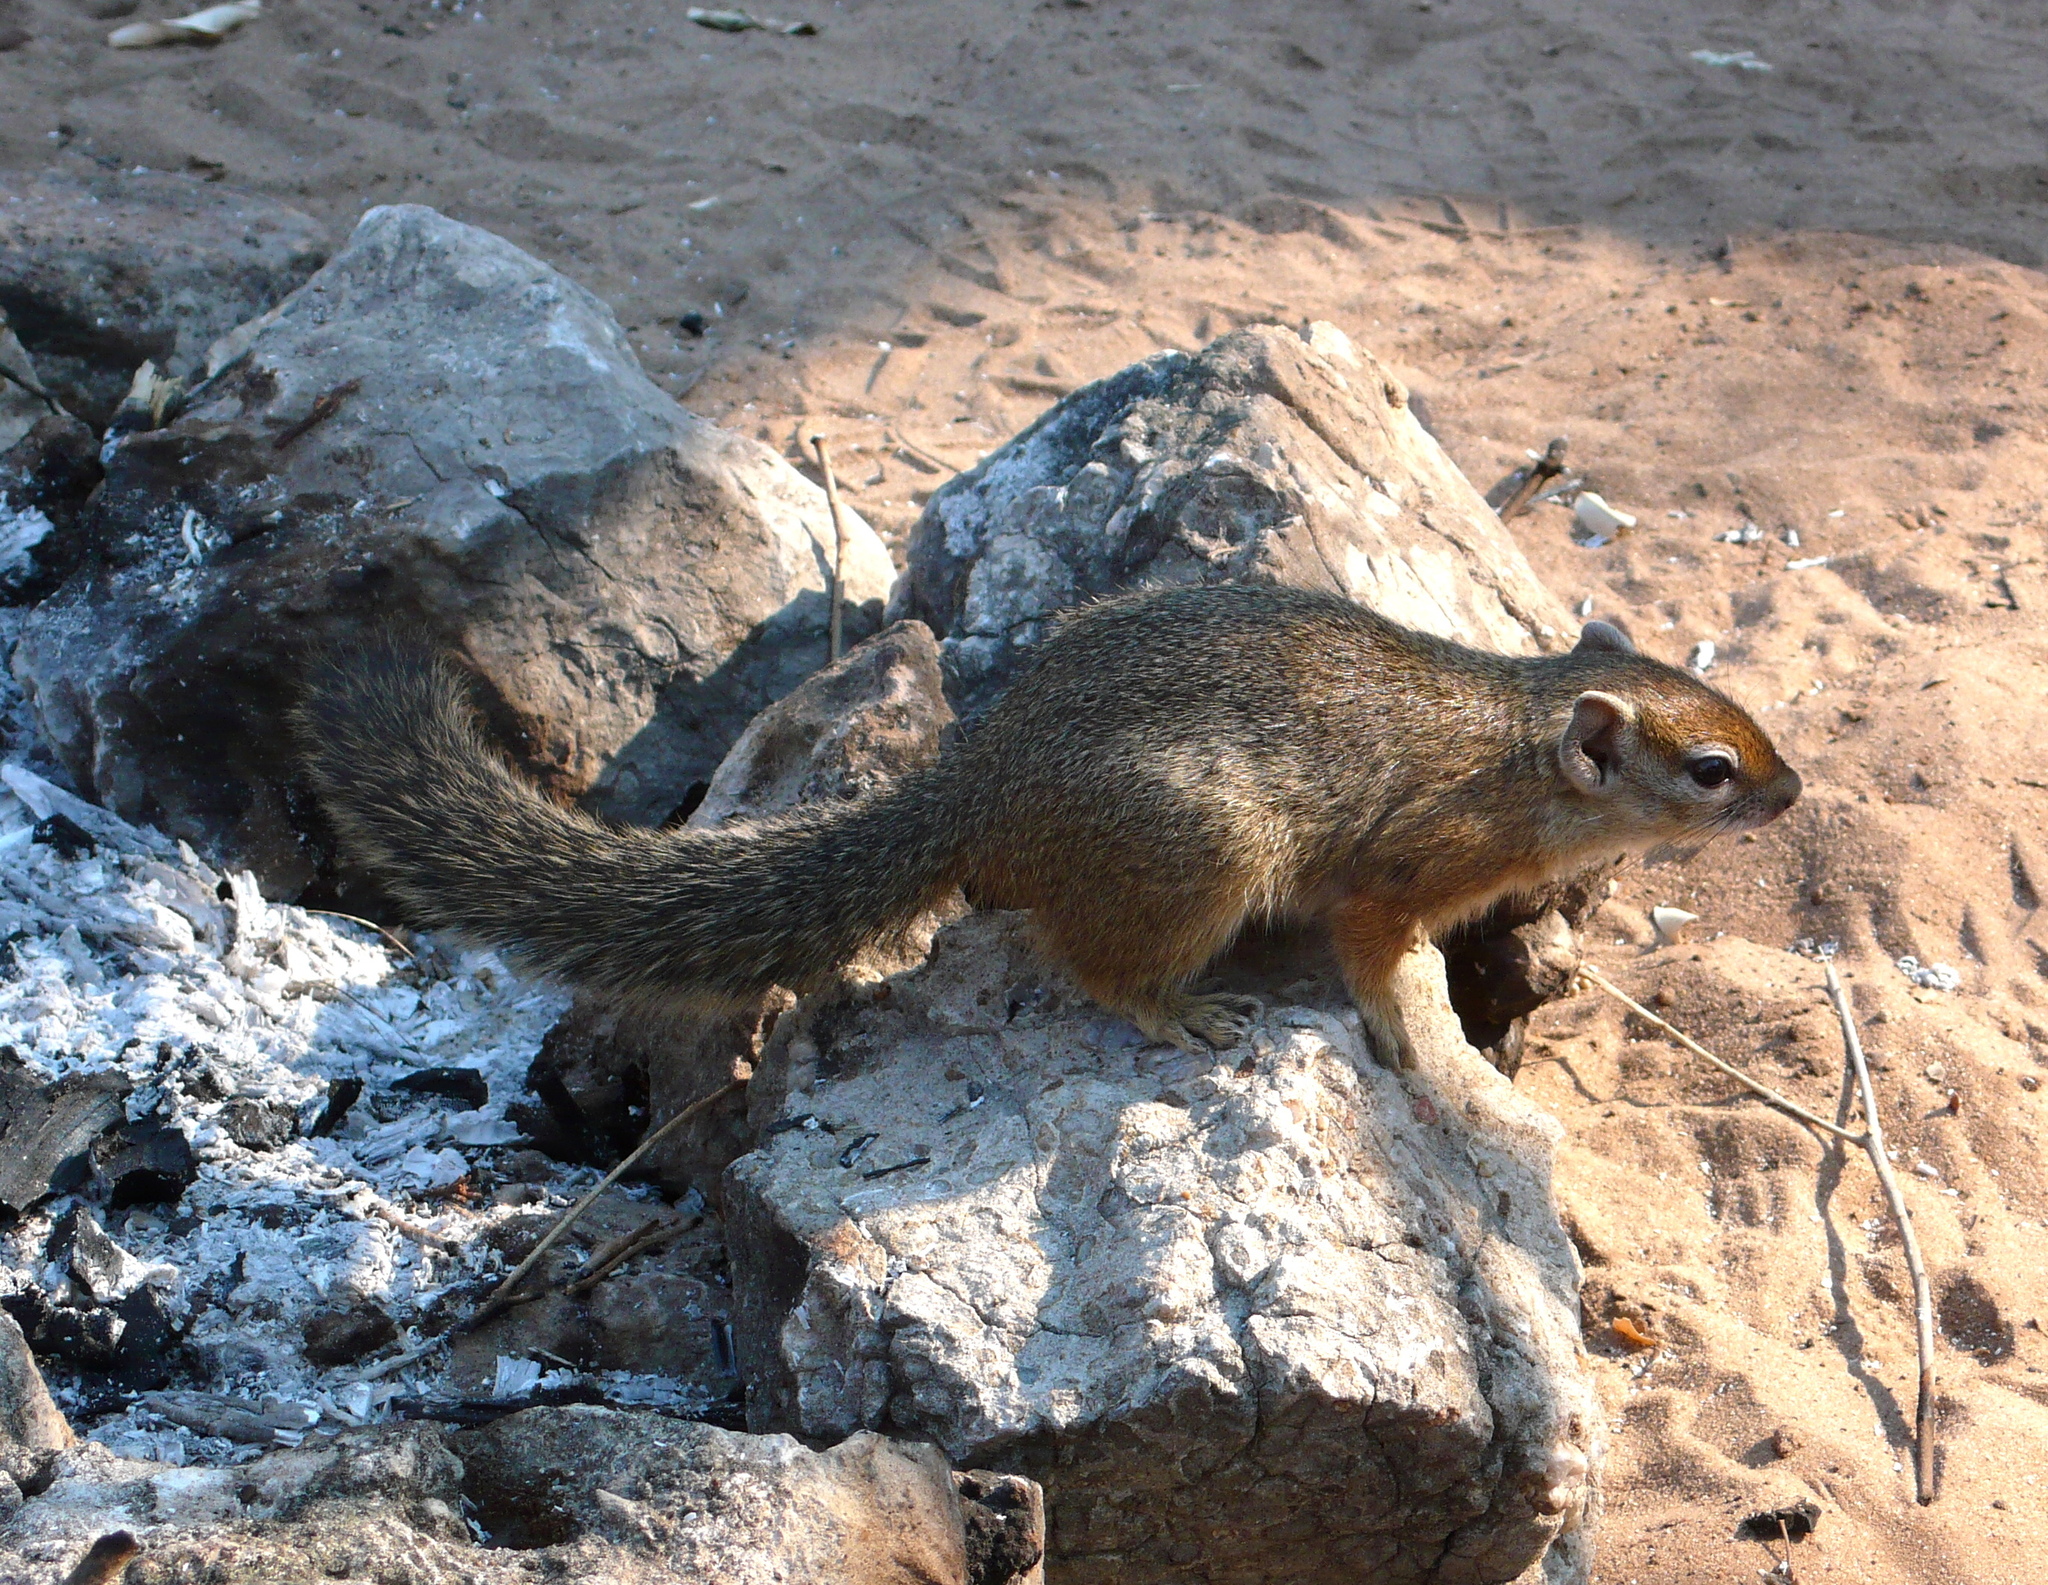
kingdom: Animalia
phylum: Chordata
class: Mammalia
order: Rodentia
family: Sciuridae
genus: Paraxerus
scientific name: Paraxerus cepapi
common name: Smith's bush squirrel
